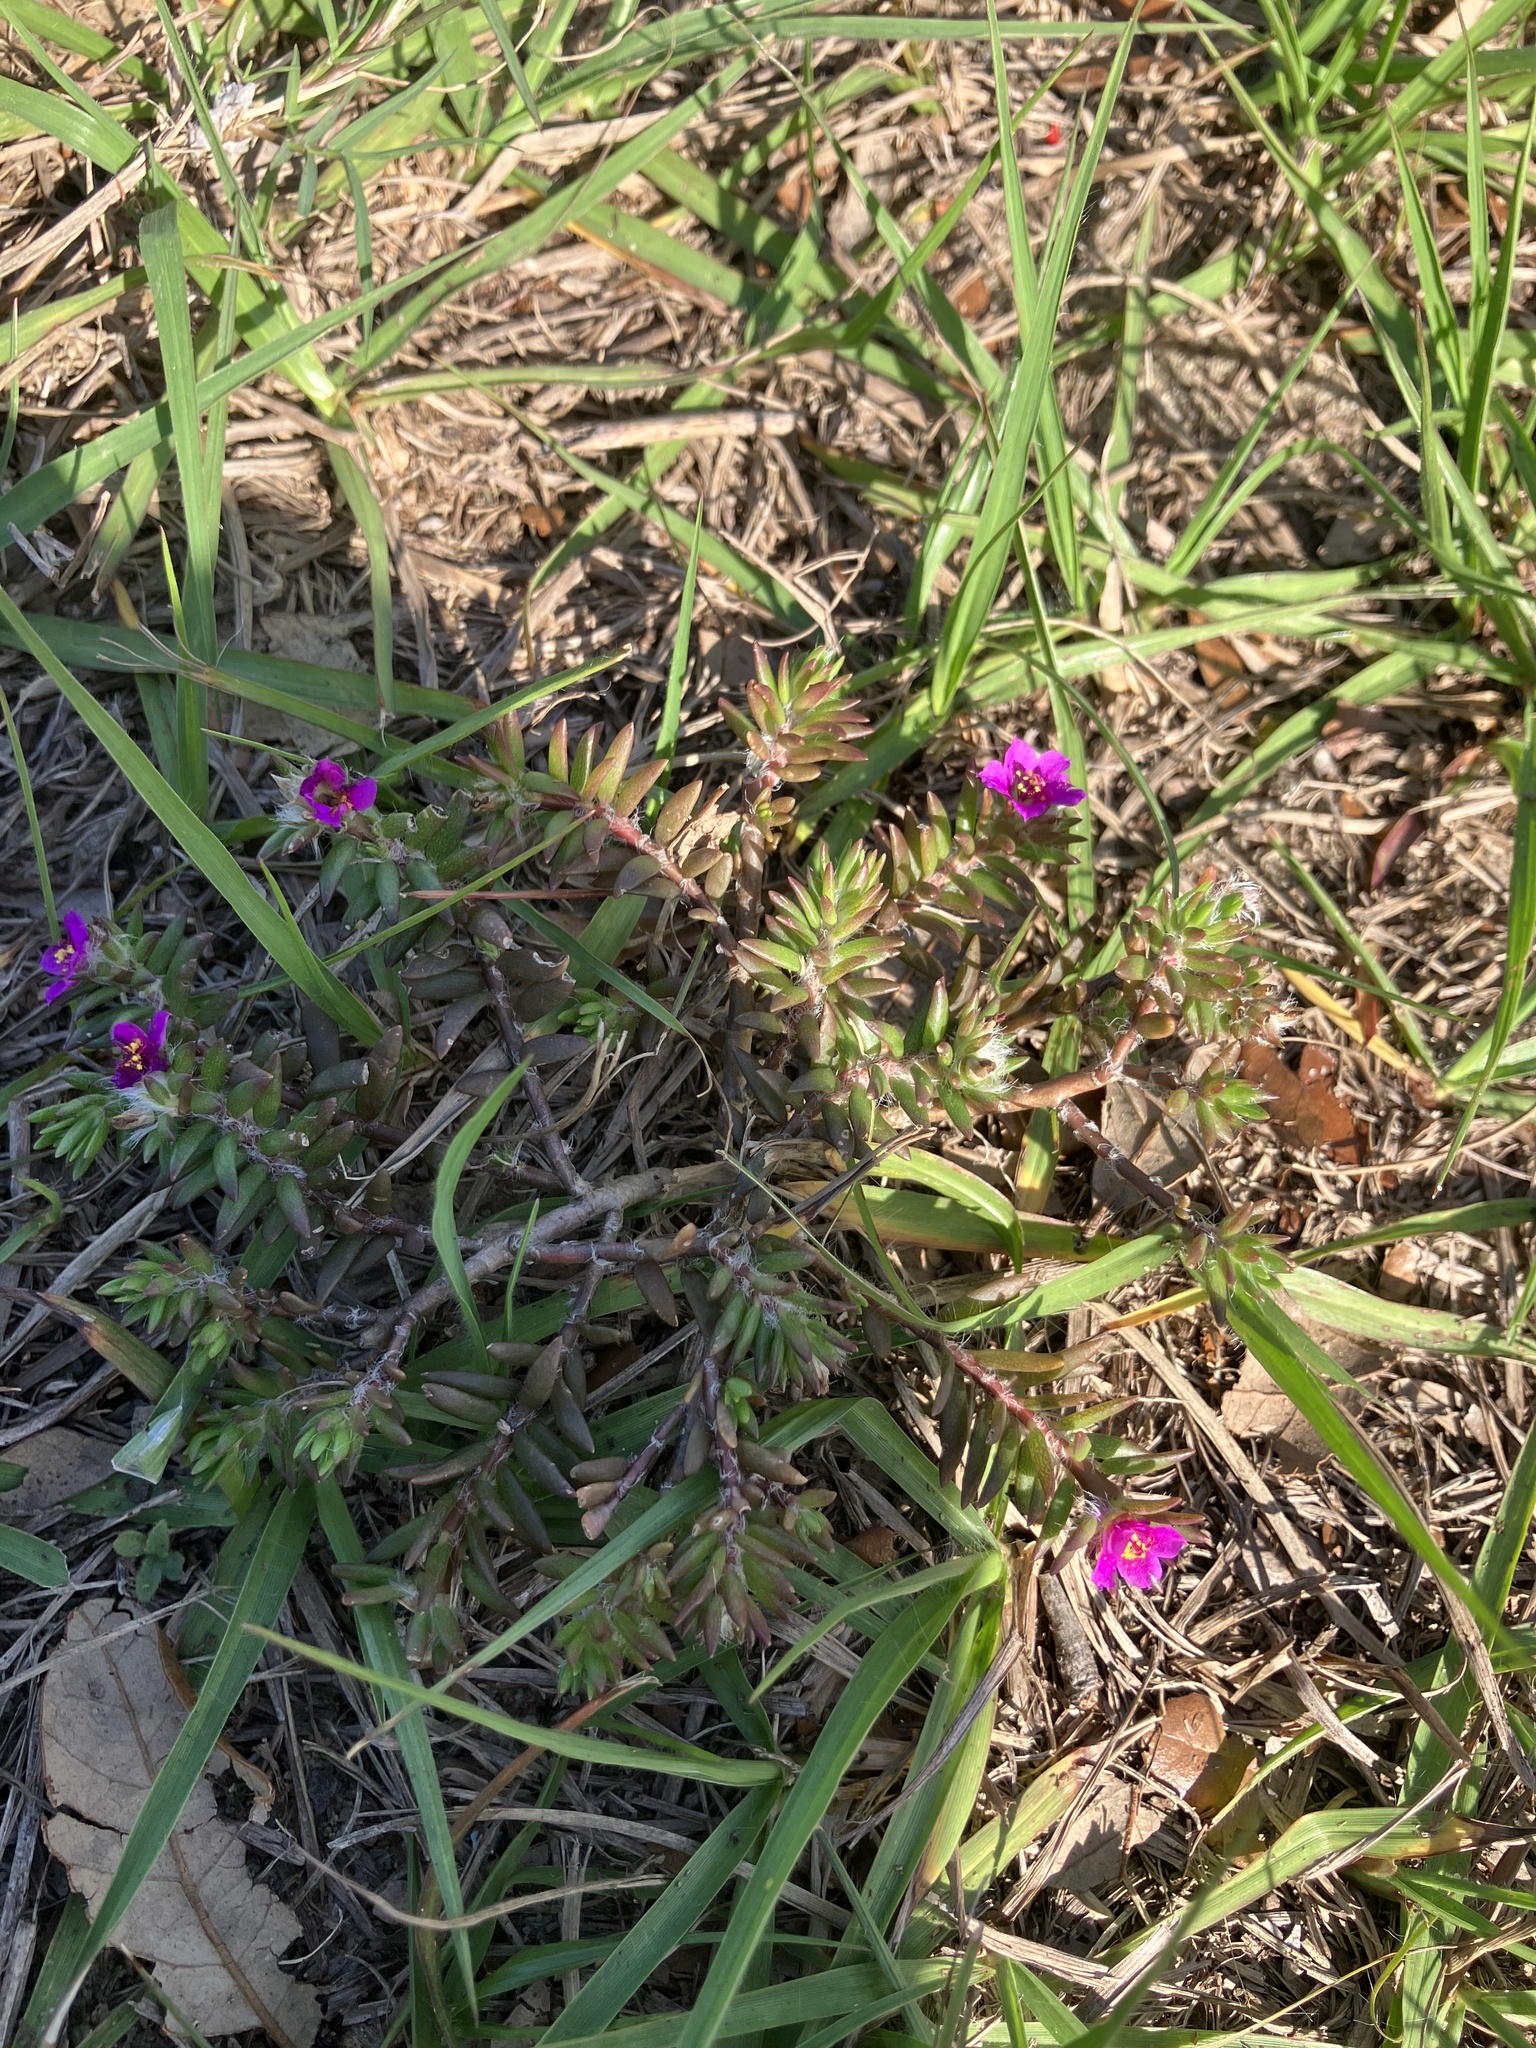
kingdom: Plantae
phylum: Tracheophyta
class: Magnoliopsida
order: Caryophyllales
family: Portulacaceae
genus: Portulaca
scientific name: Portulaca pilosa
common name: Kiss me quick
